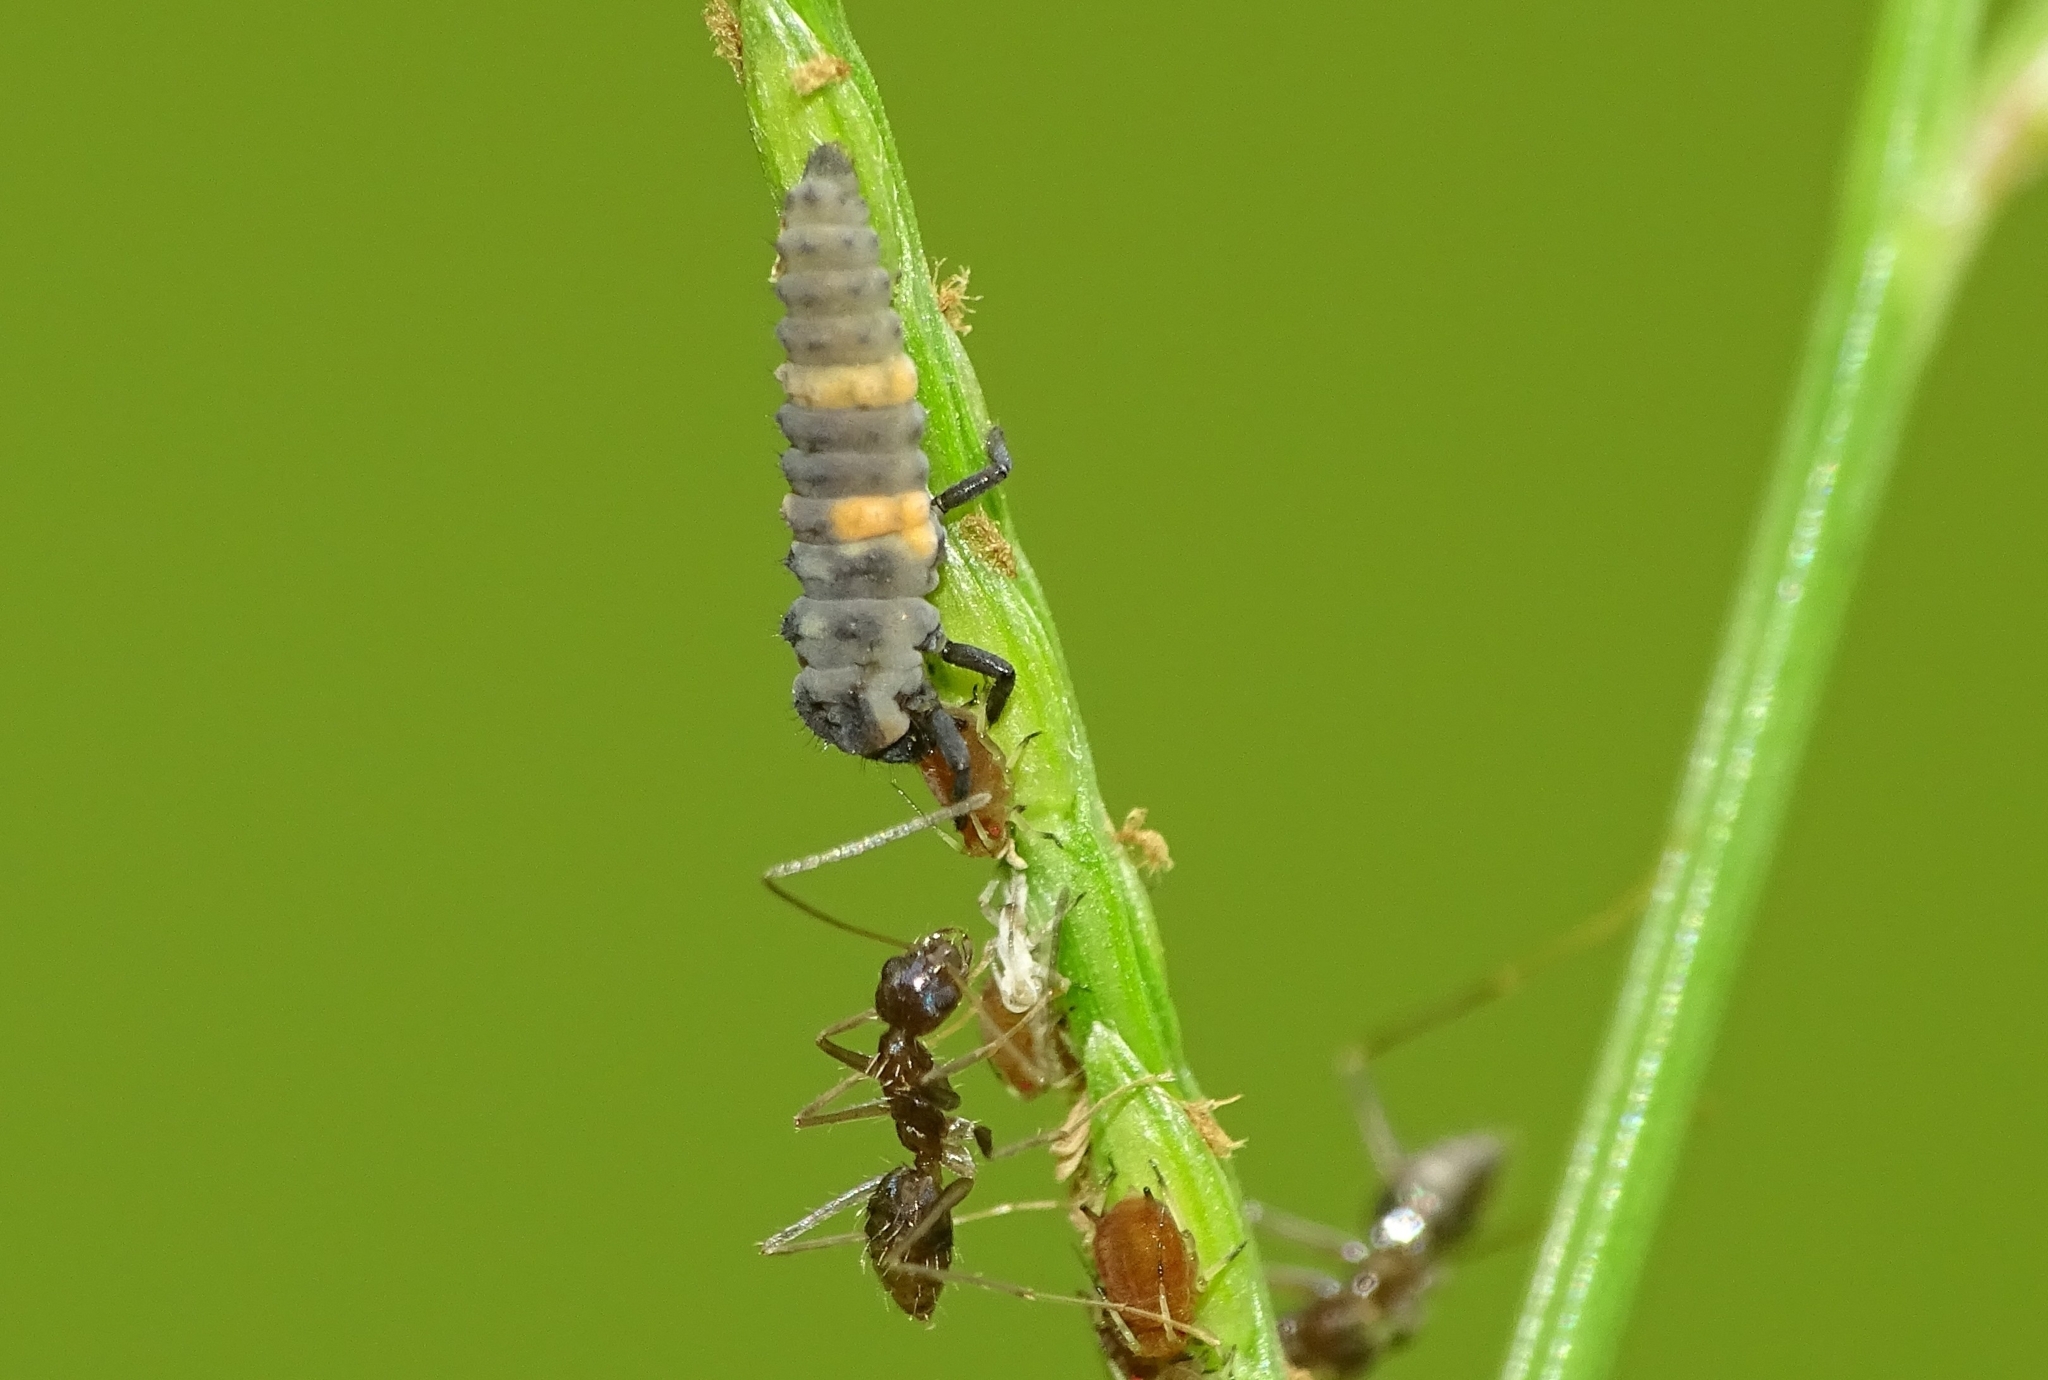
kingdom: Animalia
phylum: Arthropoda
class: Insecta
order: Hymenoptera
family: Formicidae
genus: Paratrechina
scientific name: Paratrechina longicornis
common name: Longhorned crazy ant
